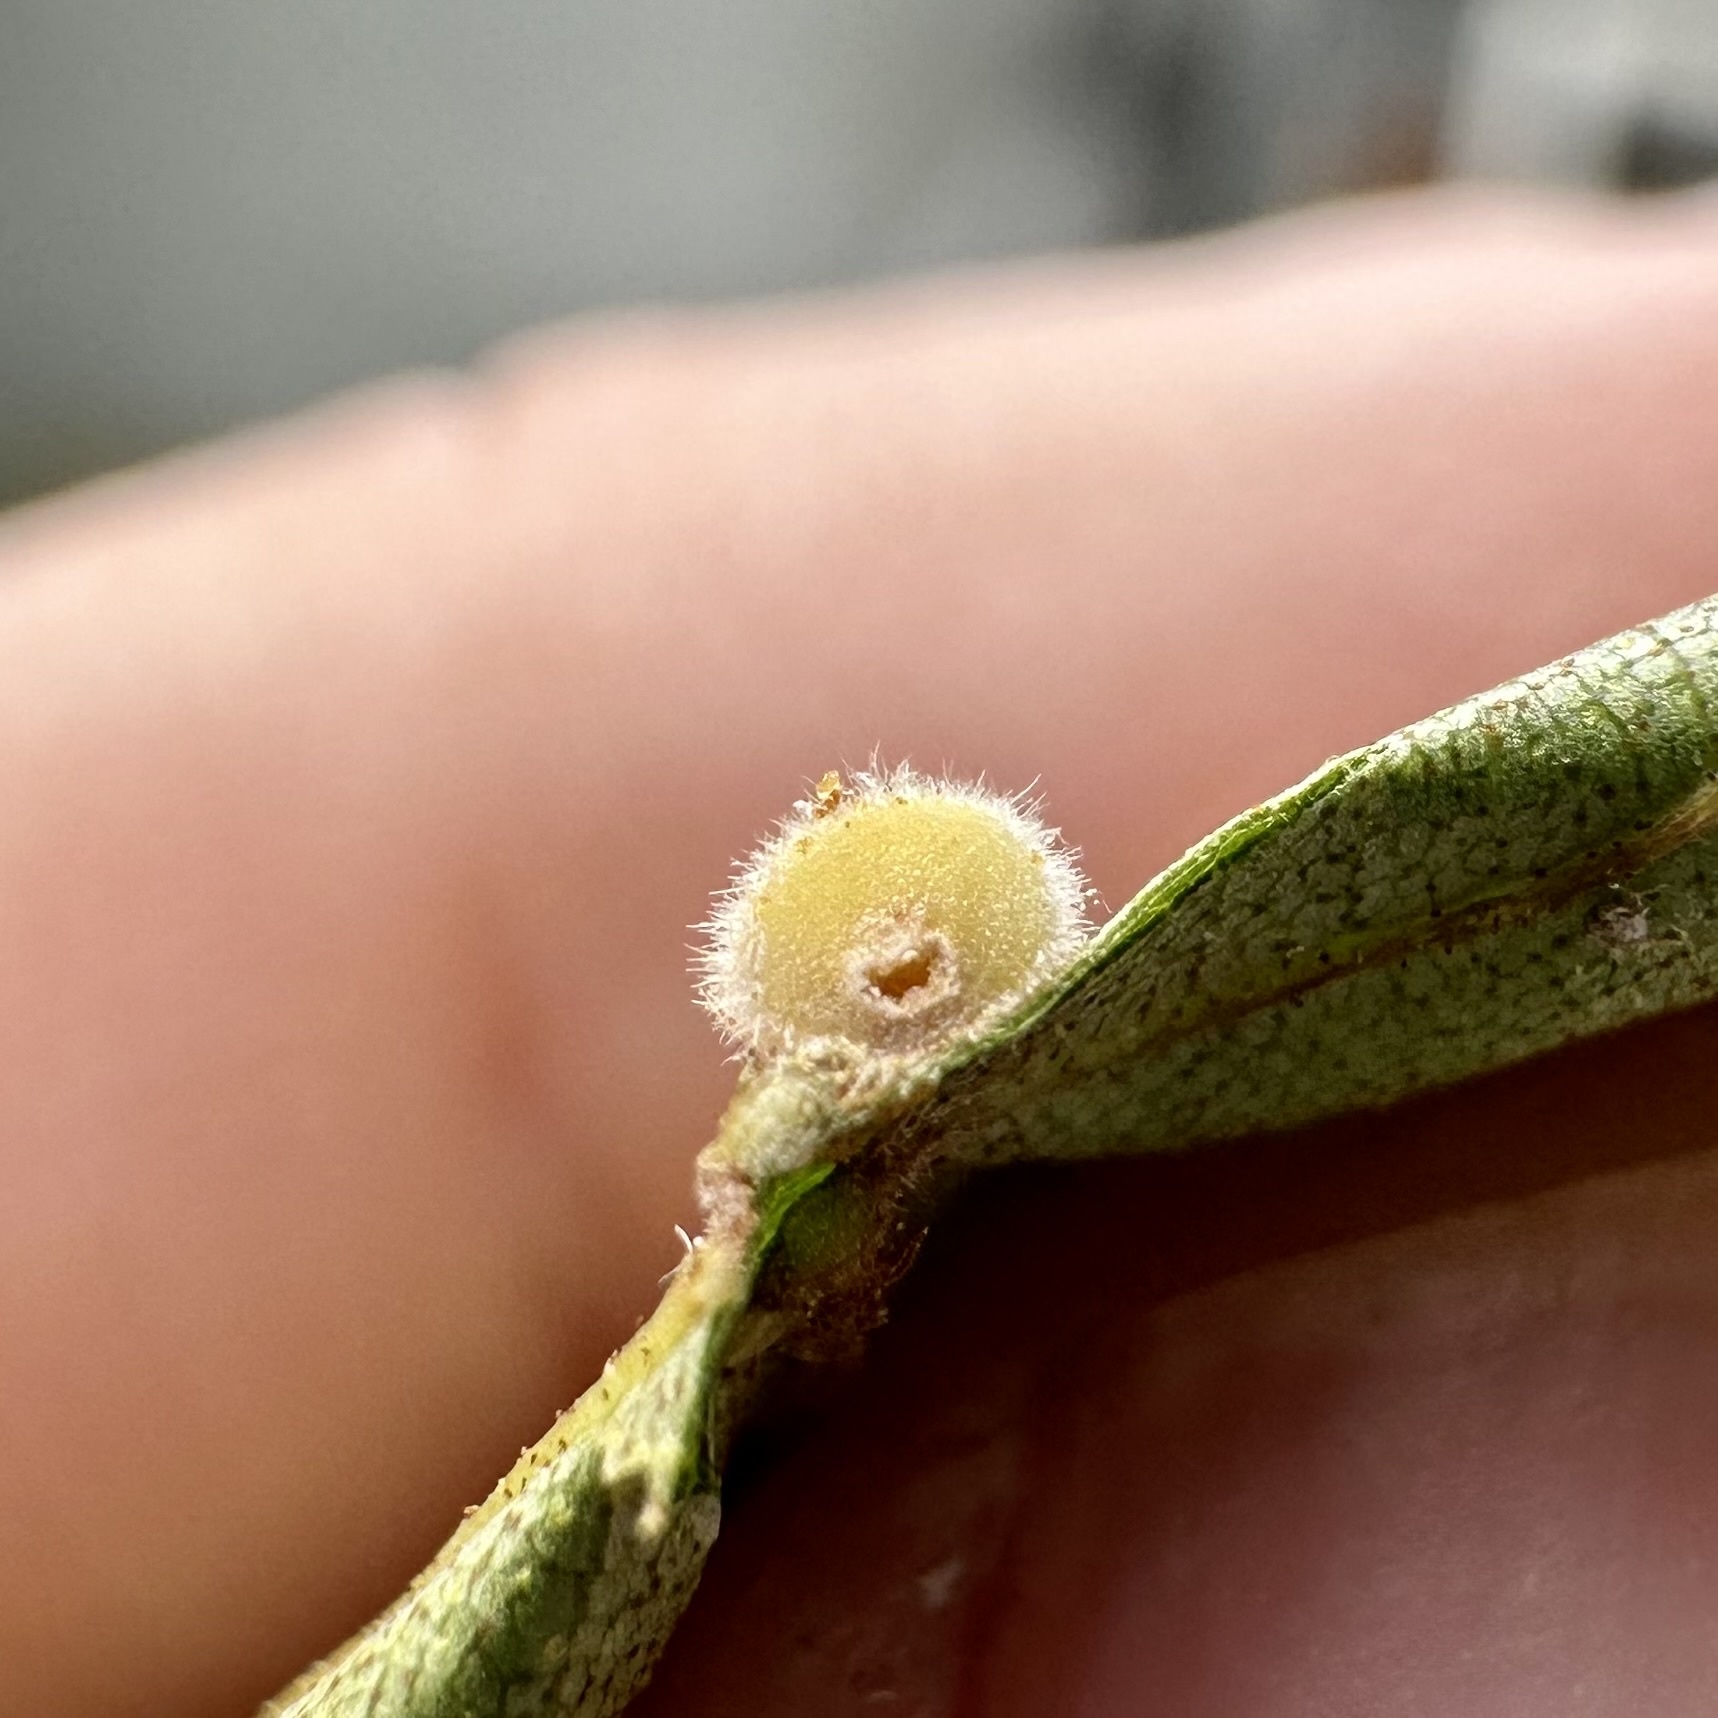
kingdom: Animalia
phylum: Arthropoda
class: Insecta
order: Diptera
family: Cecidomyiidae
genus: Caryomyia
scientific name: Caryomyia persicoides
